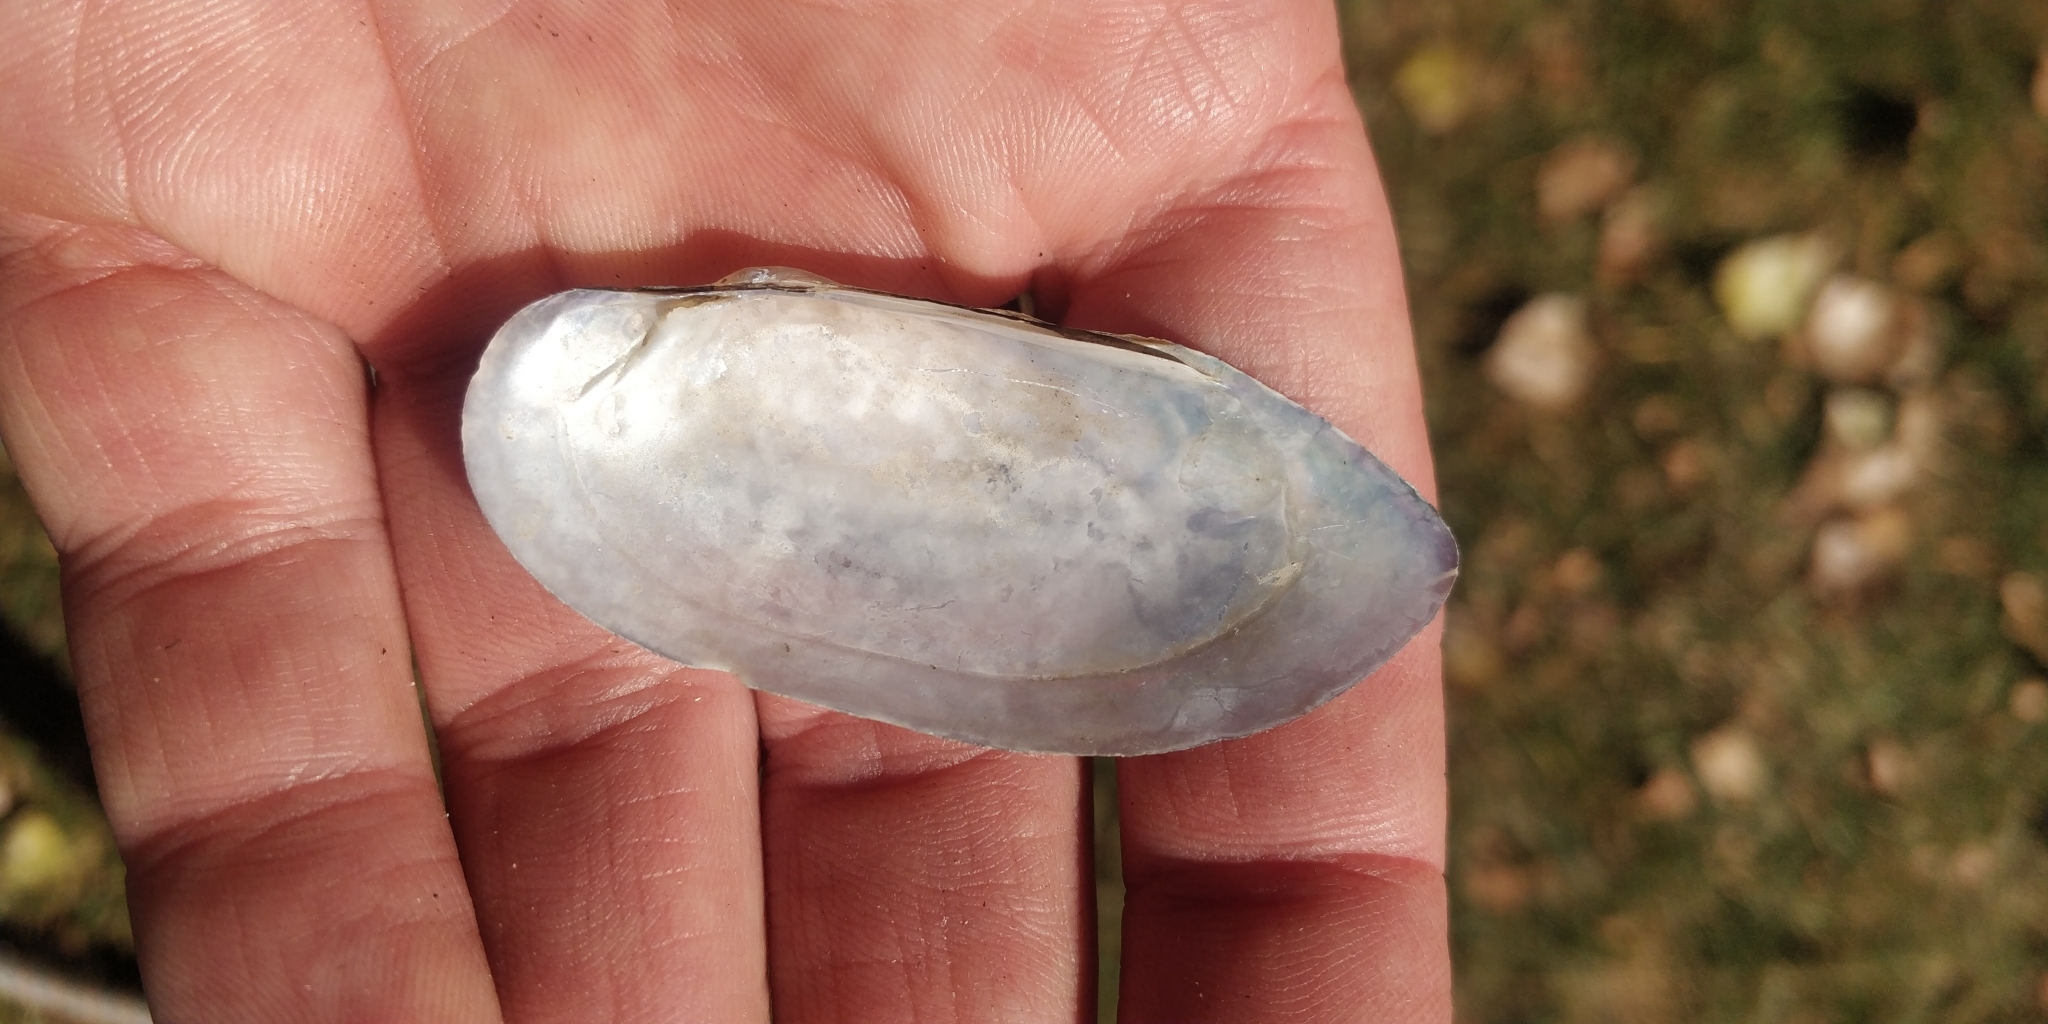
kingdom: Animalia
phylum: Mollusca
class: Bivalvia
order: Unionida
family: Unionidae
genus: Lampsilis
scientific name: Lampsilis teres
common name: Yellow sandshell
